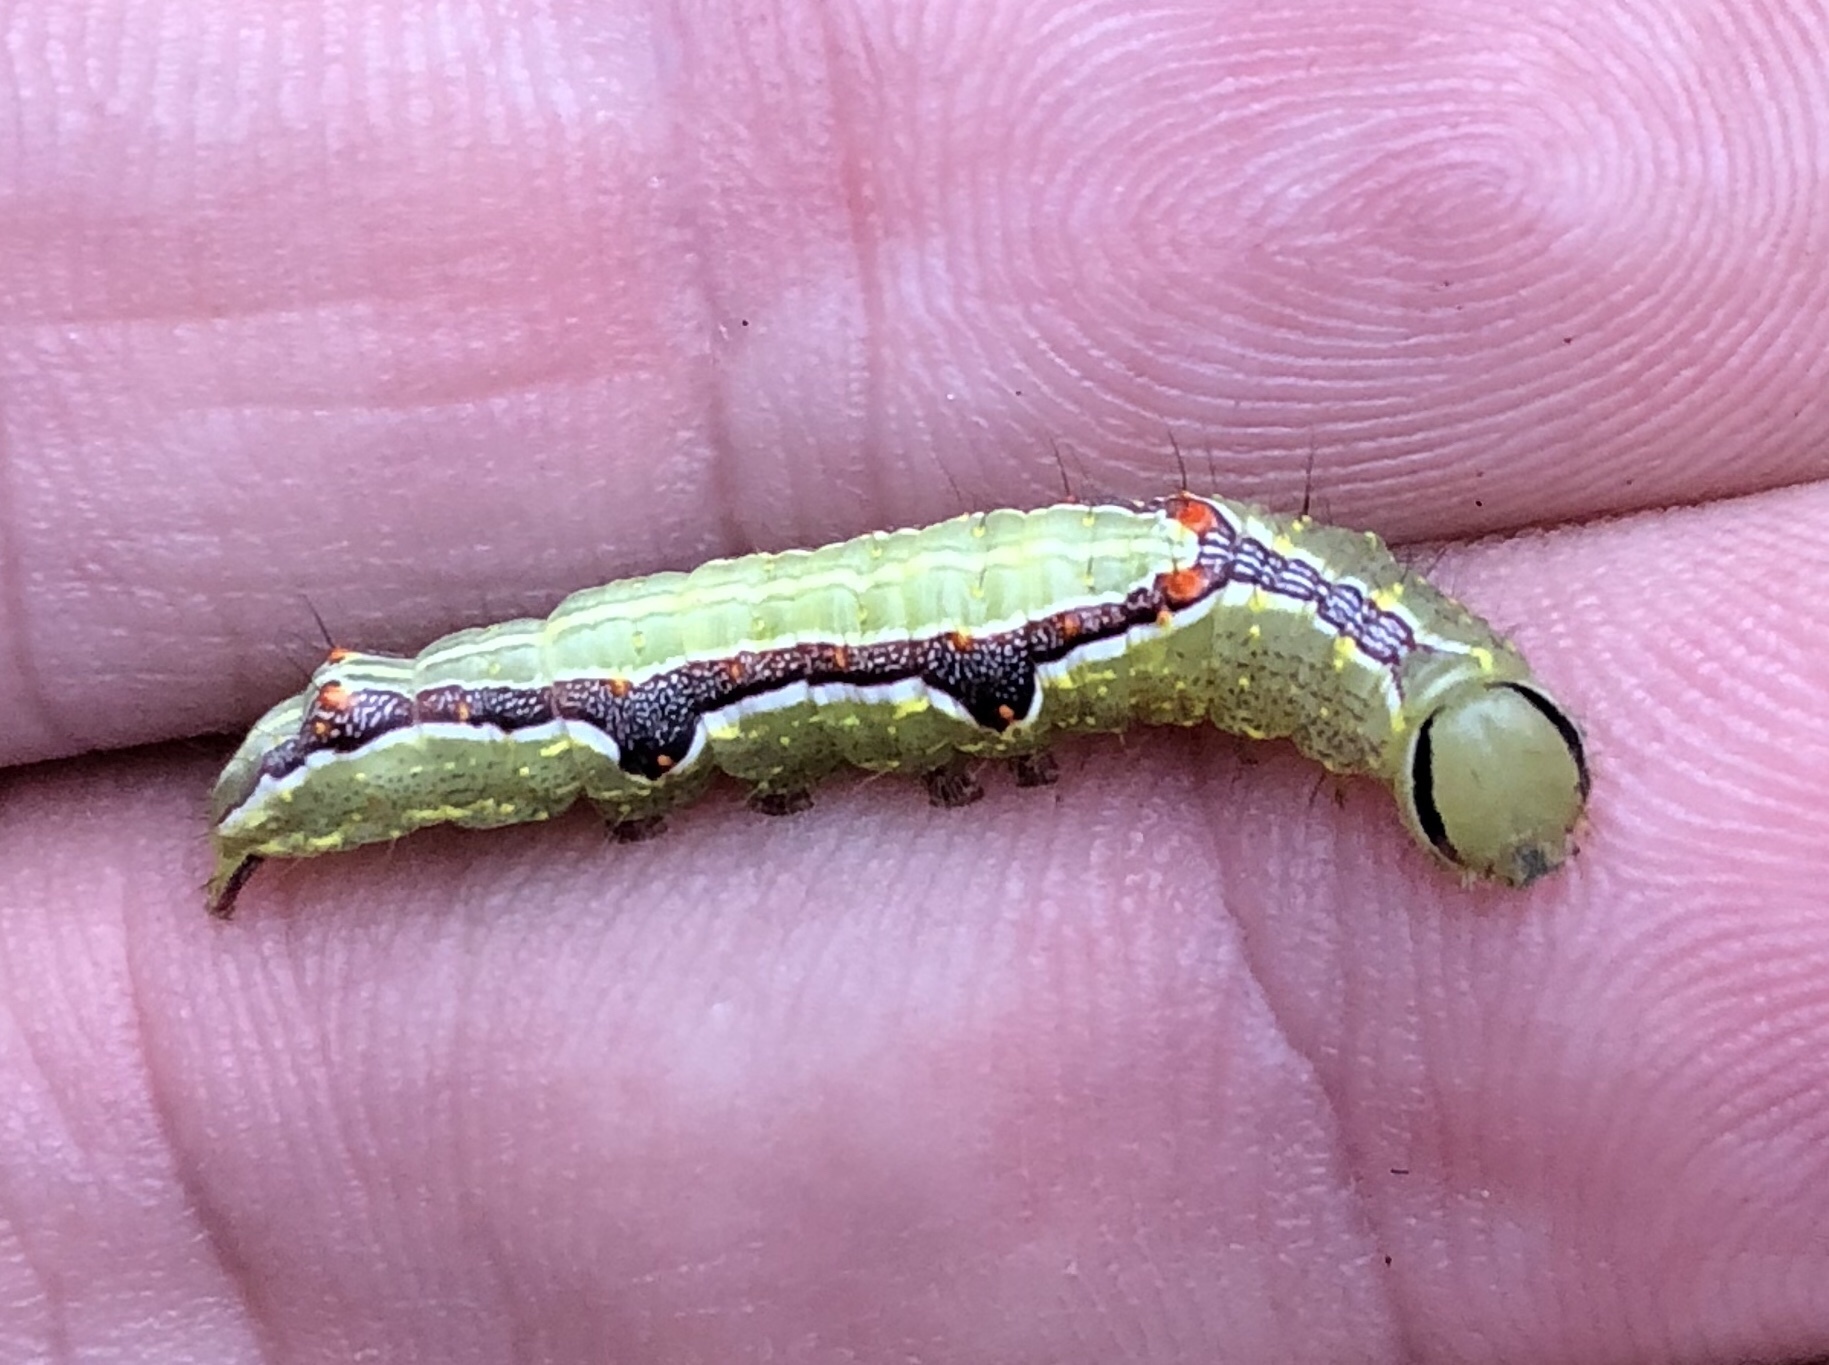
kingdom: Animalia
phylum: Arthropoda
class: Insecta
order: Lepidoptera
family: Notodontidae
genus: Lochmaeus
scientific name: Lochmaeus bilineata
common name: Double-lined prominent
